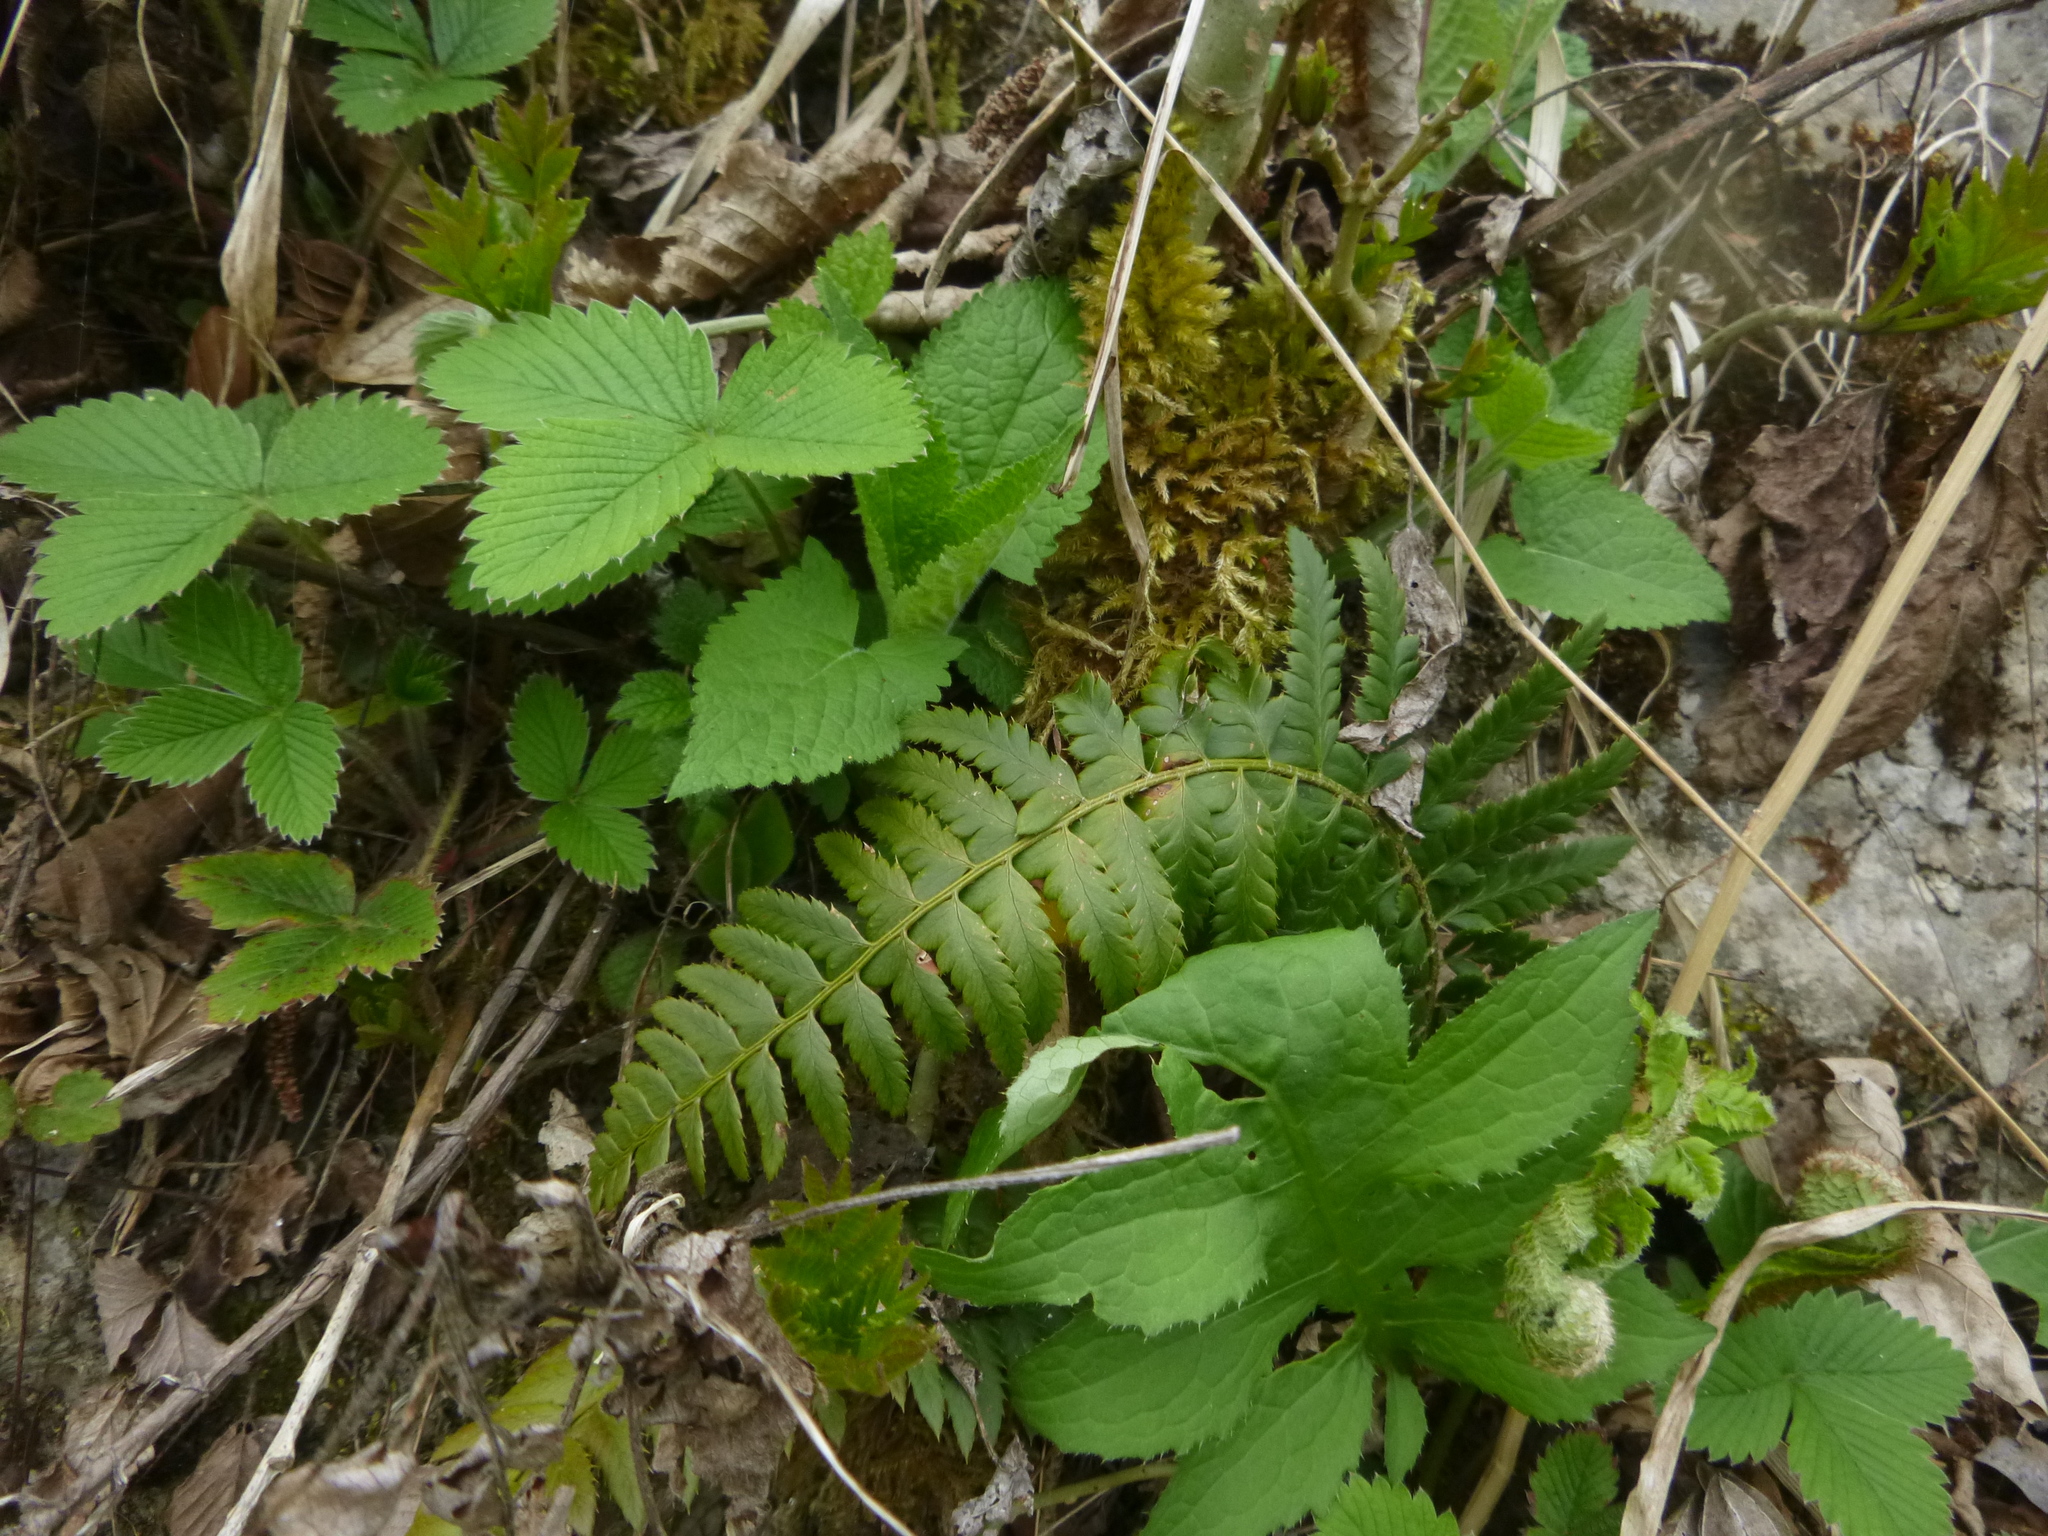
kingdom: Plantae
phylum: Tracheophyta
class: Polypodiopsida
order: Polypodiales
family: Dryopteridaceae
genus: Polystichum
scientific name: Polystichum aculeatum
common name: Hard shield-fern
